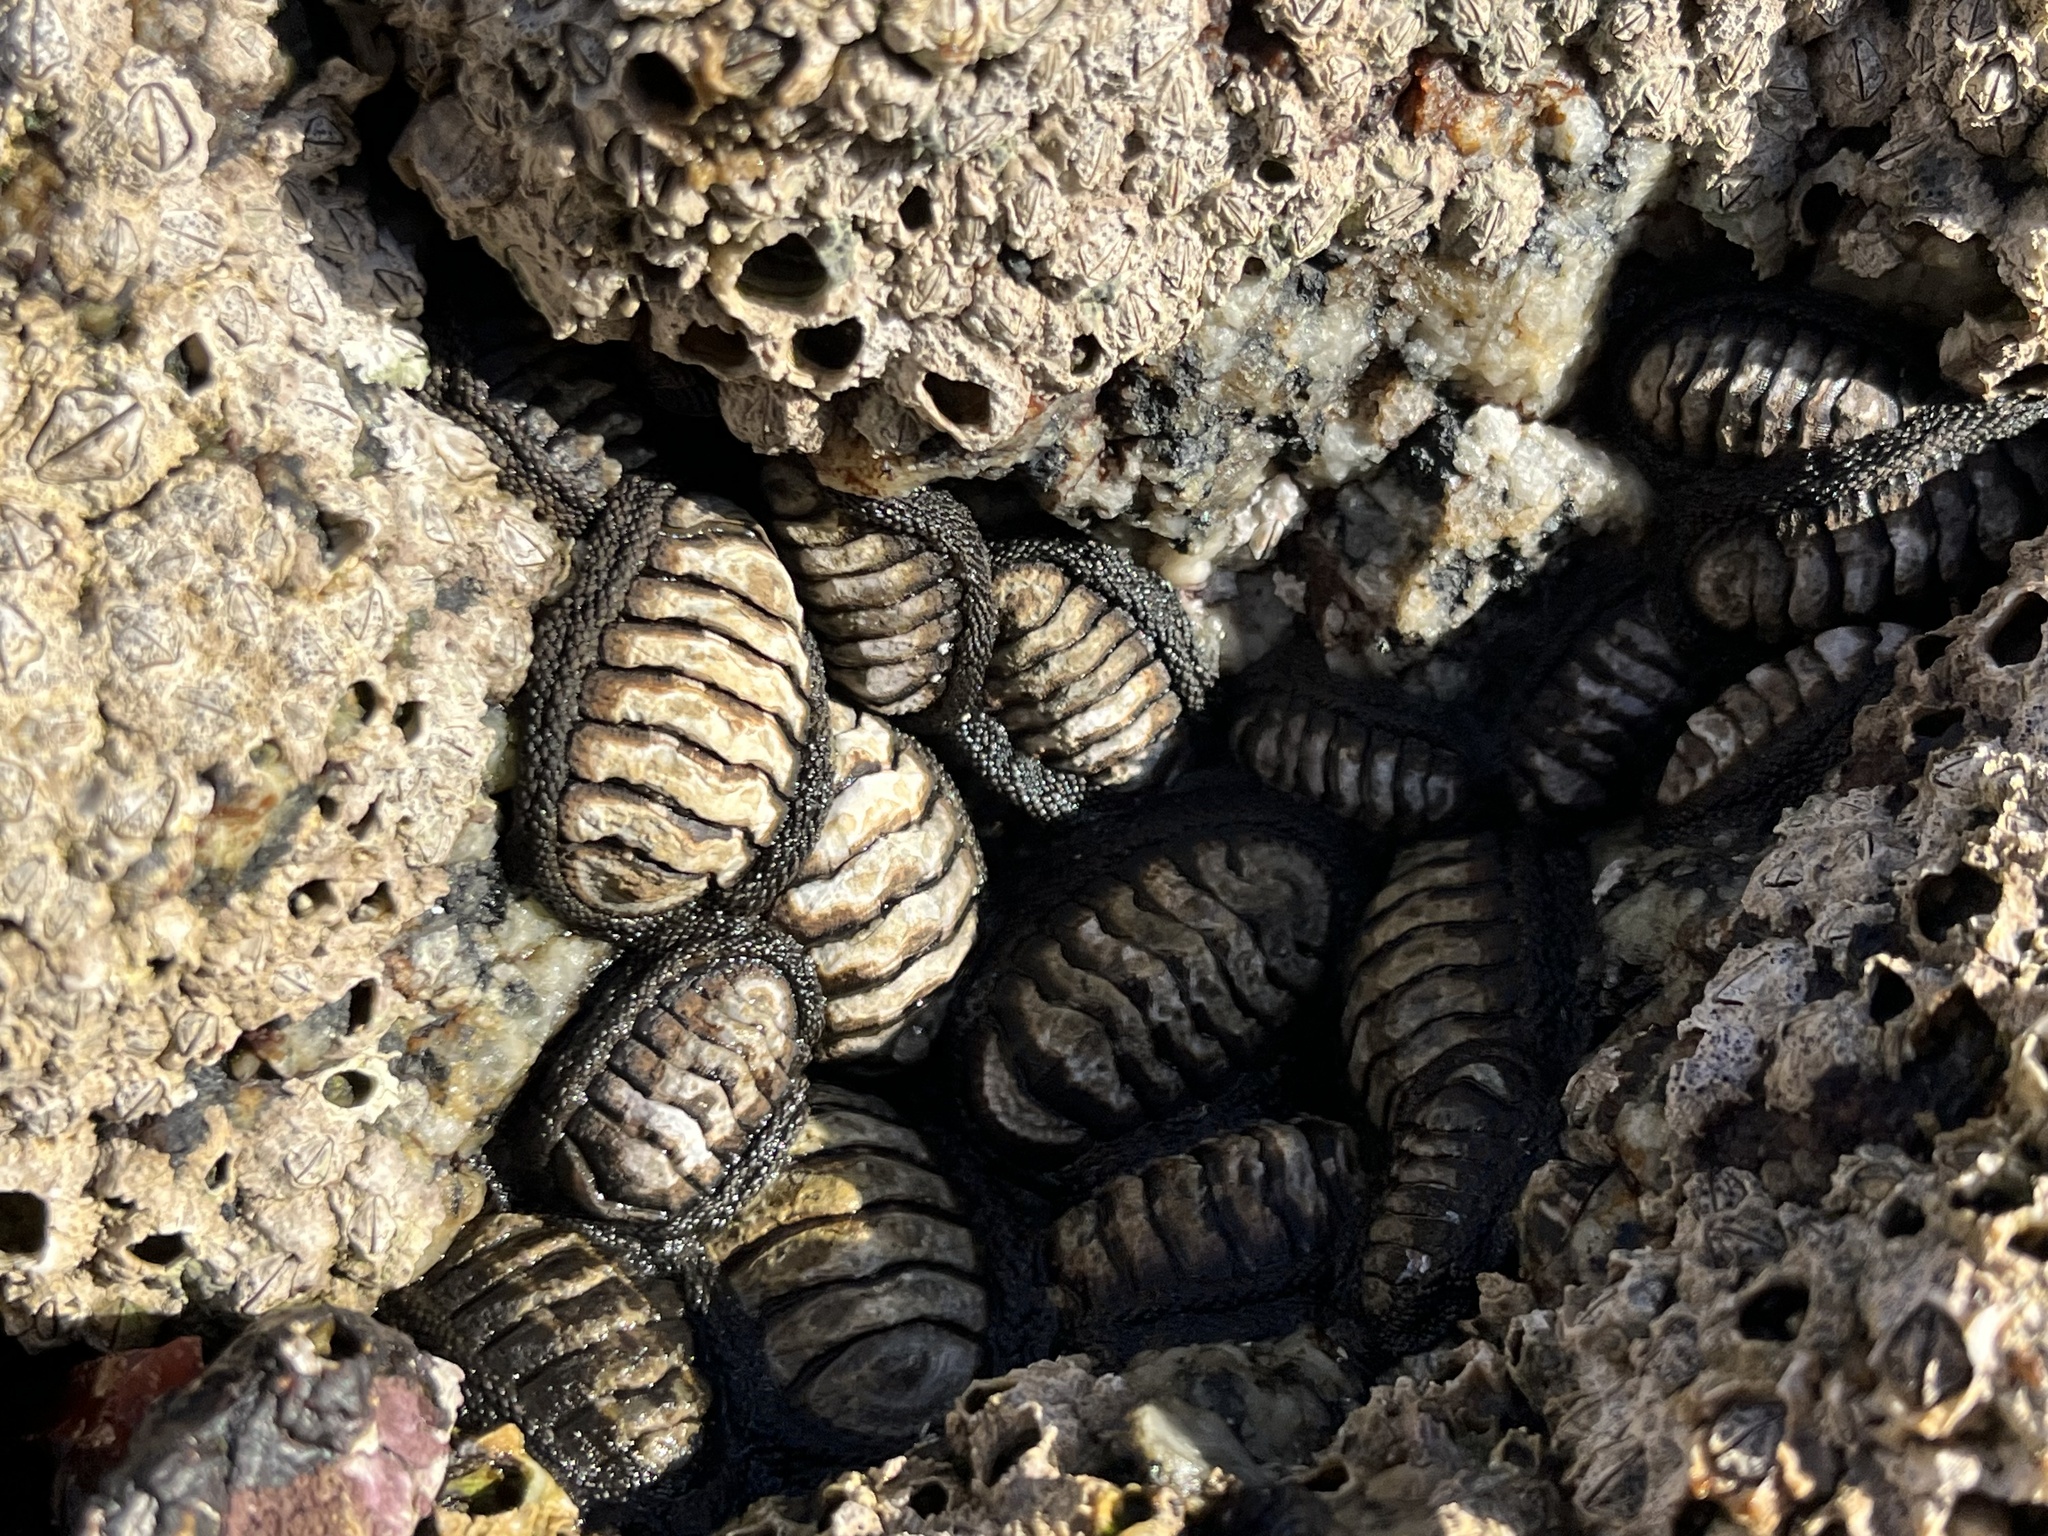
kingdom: Animalia
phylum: Mollusca
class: Polyplacophora
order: Chitonida
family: Chitonidae
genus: Chiton
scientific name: Chiton granosus
